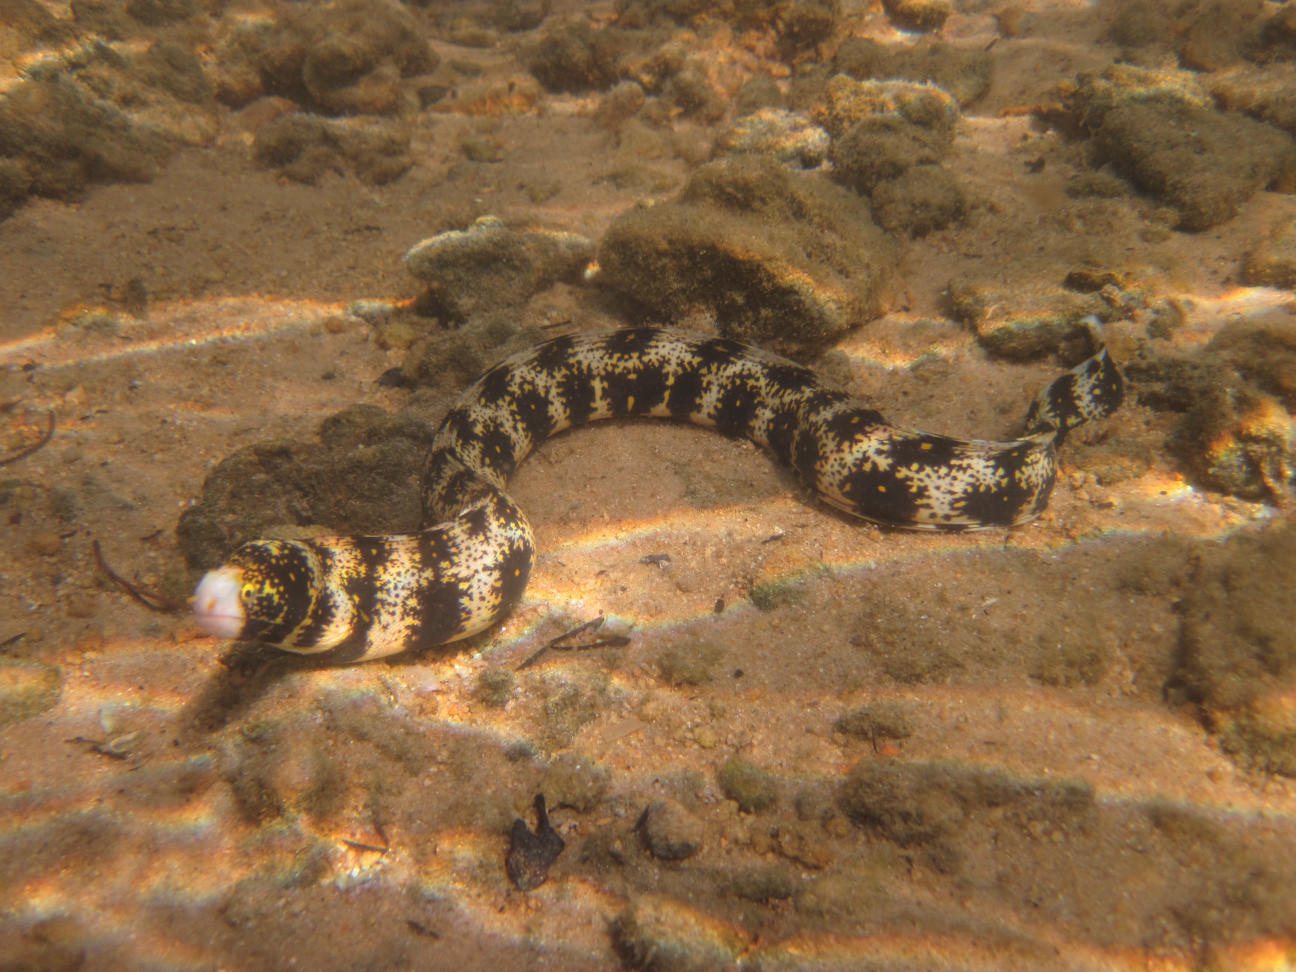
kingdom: Animalia
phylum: Chordata
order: Anguilliformes
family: Muraenidae
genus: Echidna
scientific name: Echidna nebulosa
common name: Snowflake moray
